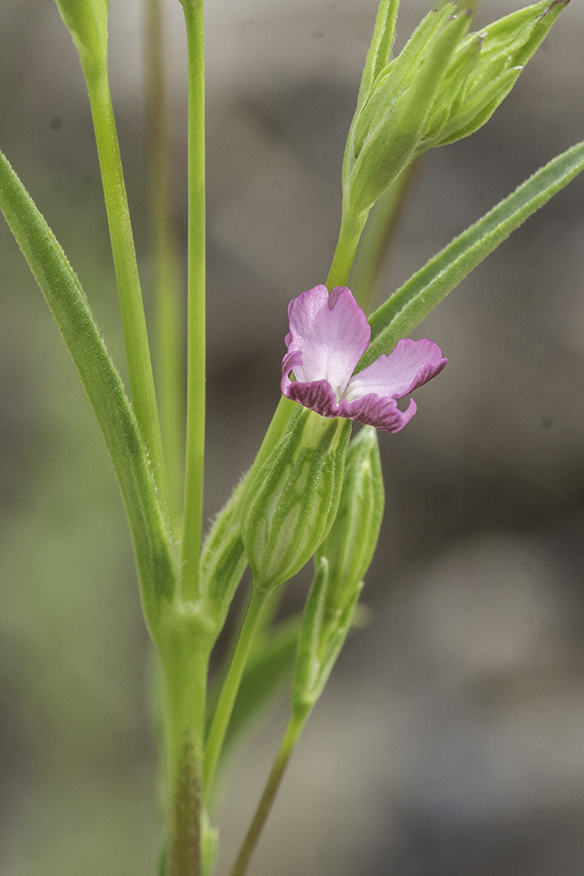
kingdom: Plantae
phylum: Tracheophyta
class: Magnoliopsida
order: Caryophyllales
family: Caryophyllaceae
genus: Silene
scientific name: Silene antirrhina
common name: Sleepy catchfly
